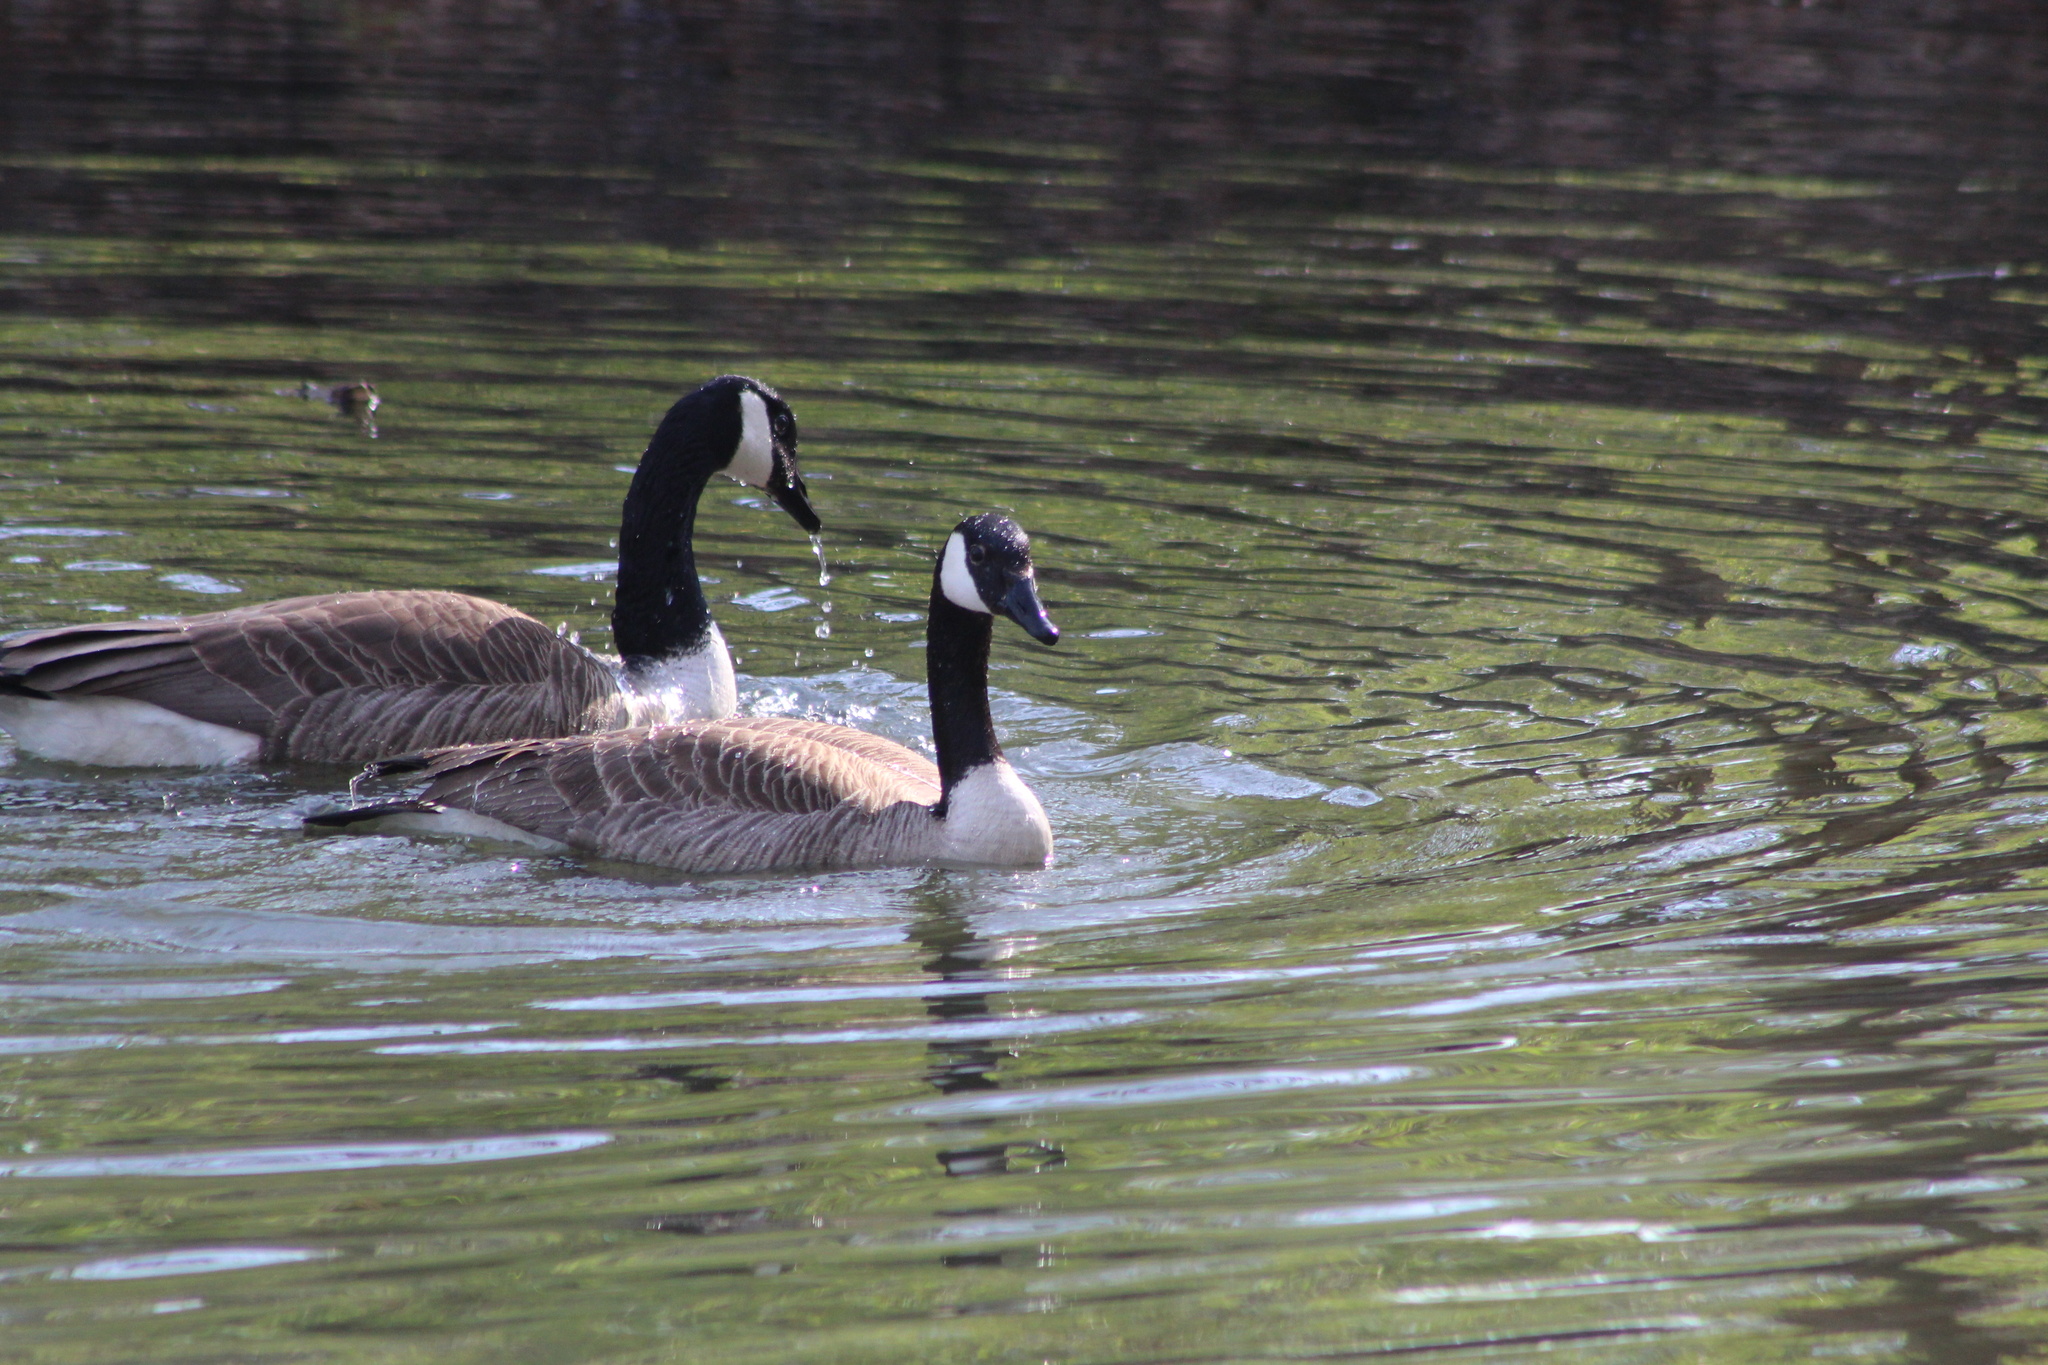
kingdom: Animalia
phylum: Chordata
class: Aves
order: Anseriformes
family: Anatidae
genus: Branta
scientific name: Branta canadensis
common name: Canada goose
